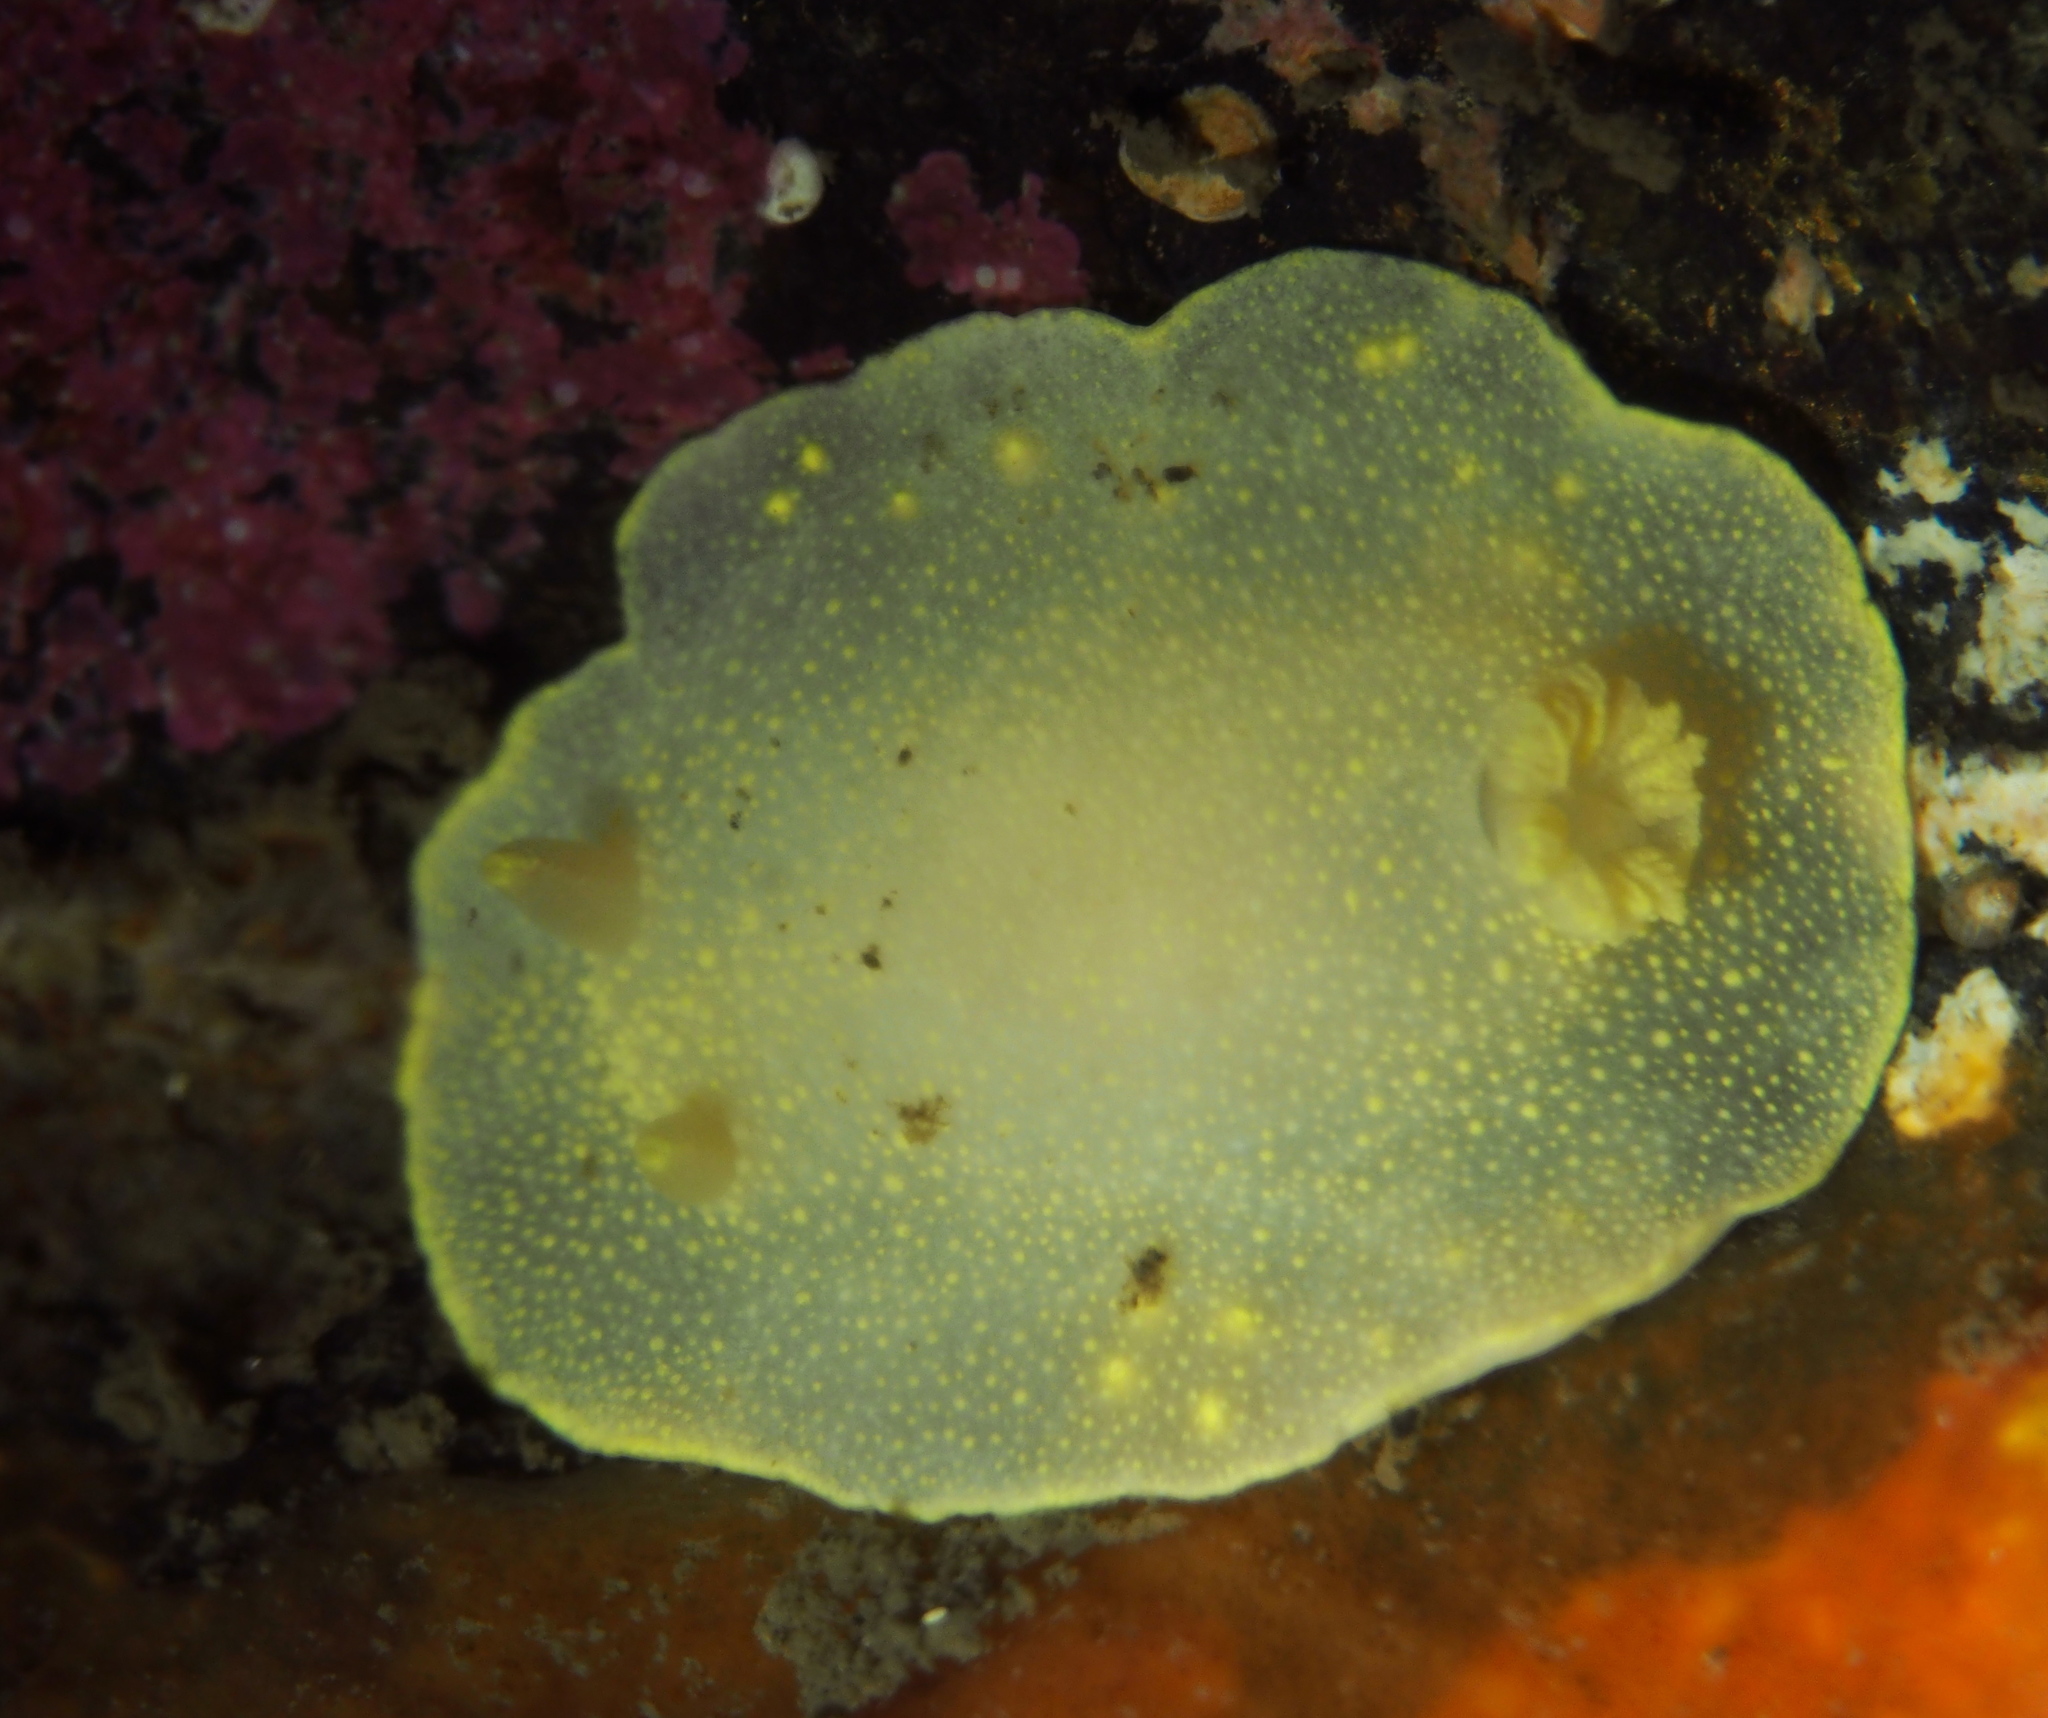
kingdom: Animalia
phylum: Mollusca
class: Gastropoda
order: Nudibranchia
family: Cadlinidae
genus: Cadlina
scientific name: Cadlina laevis
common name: White atlantic cadlina
